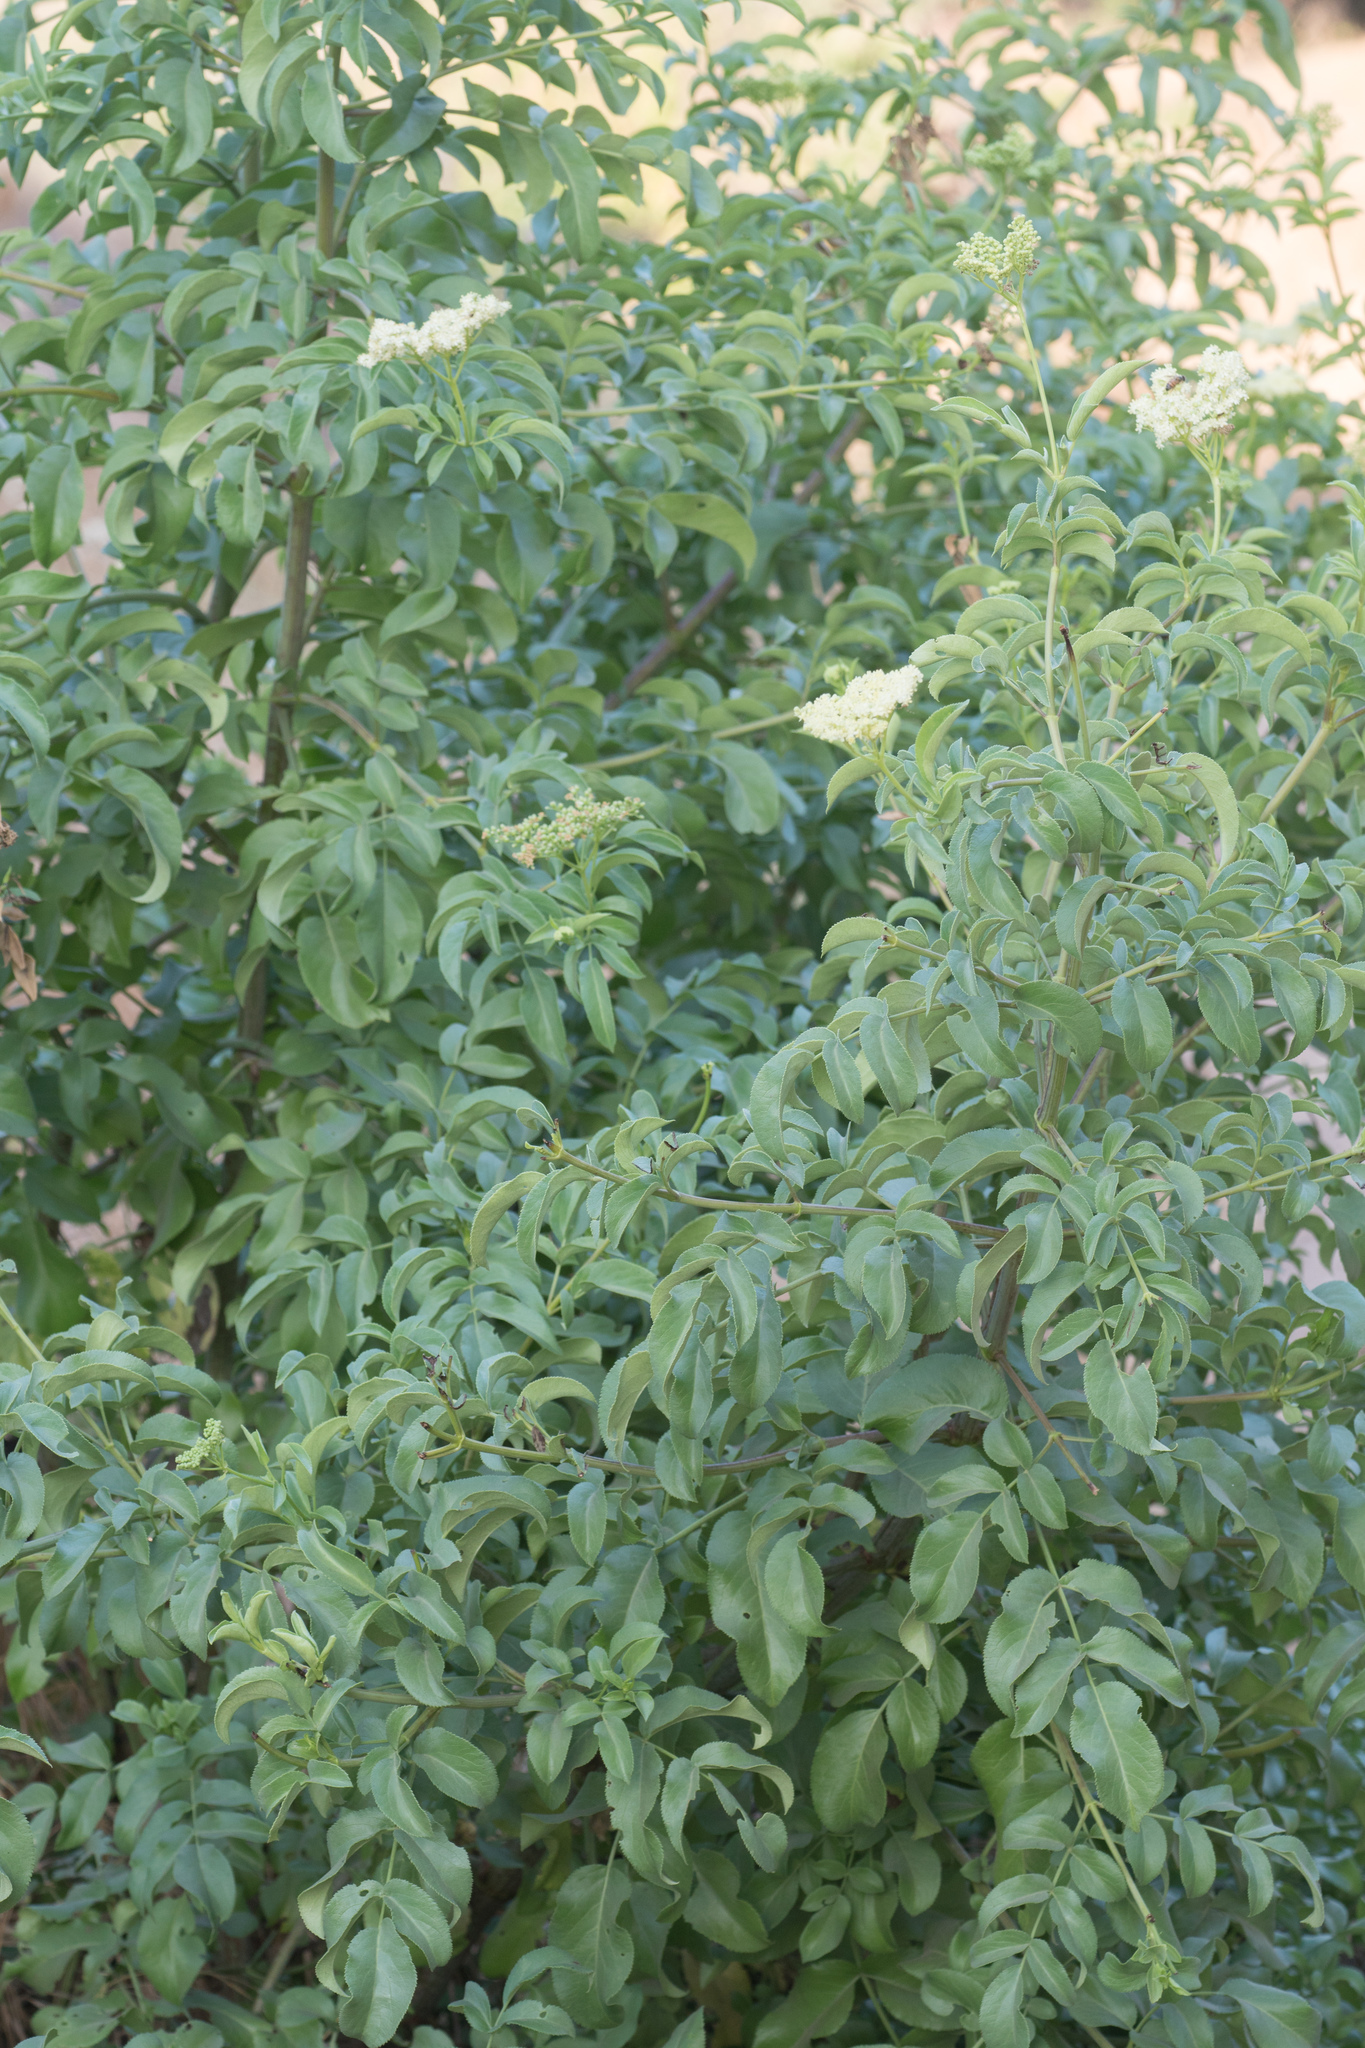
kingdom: Plantae
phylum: Tracheophyta
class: Magnoliopsida
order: Dipsacales
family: Viburnaceae
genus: Sambucus
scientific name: Sambucus cerulea
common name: Blue elder
